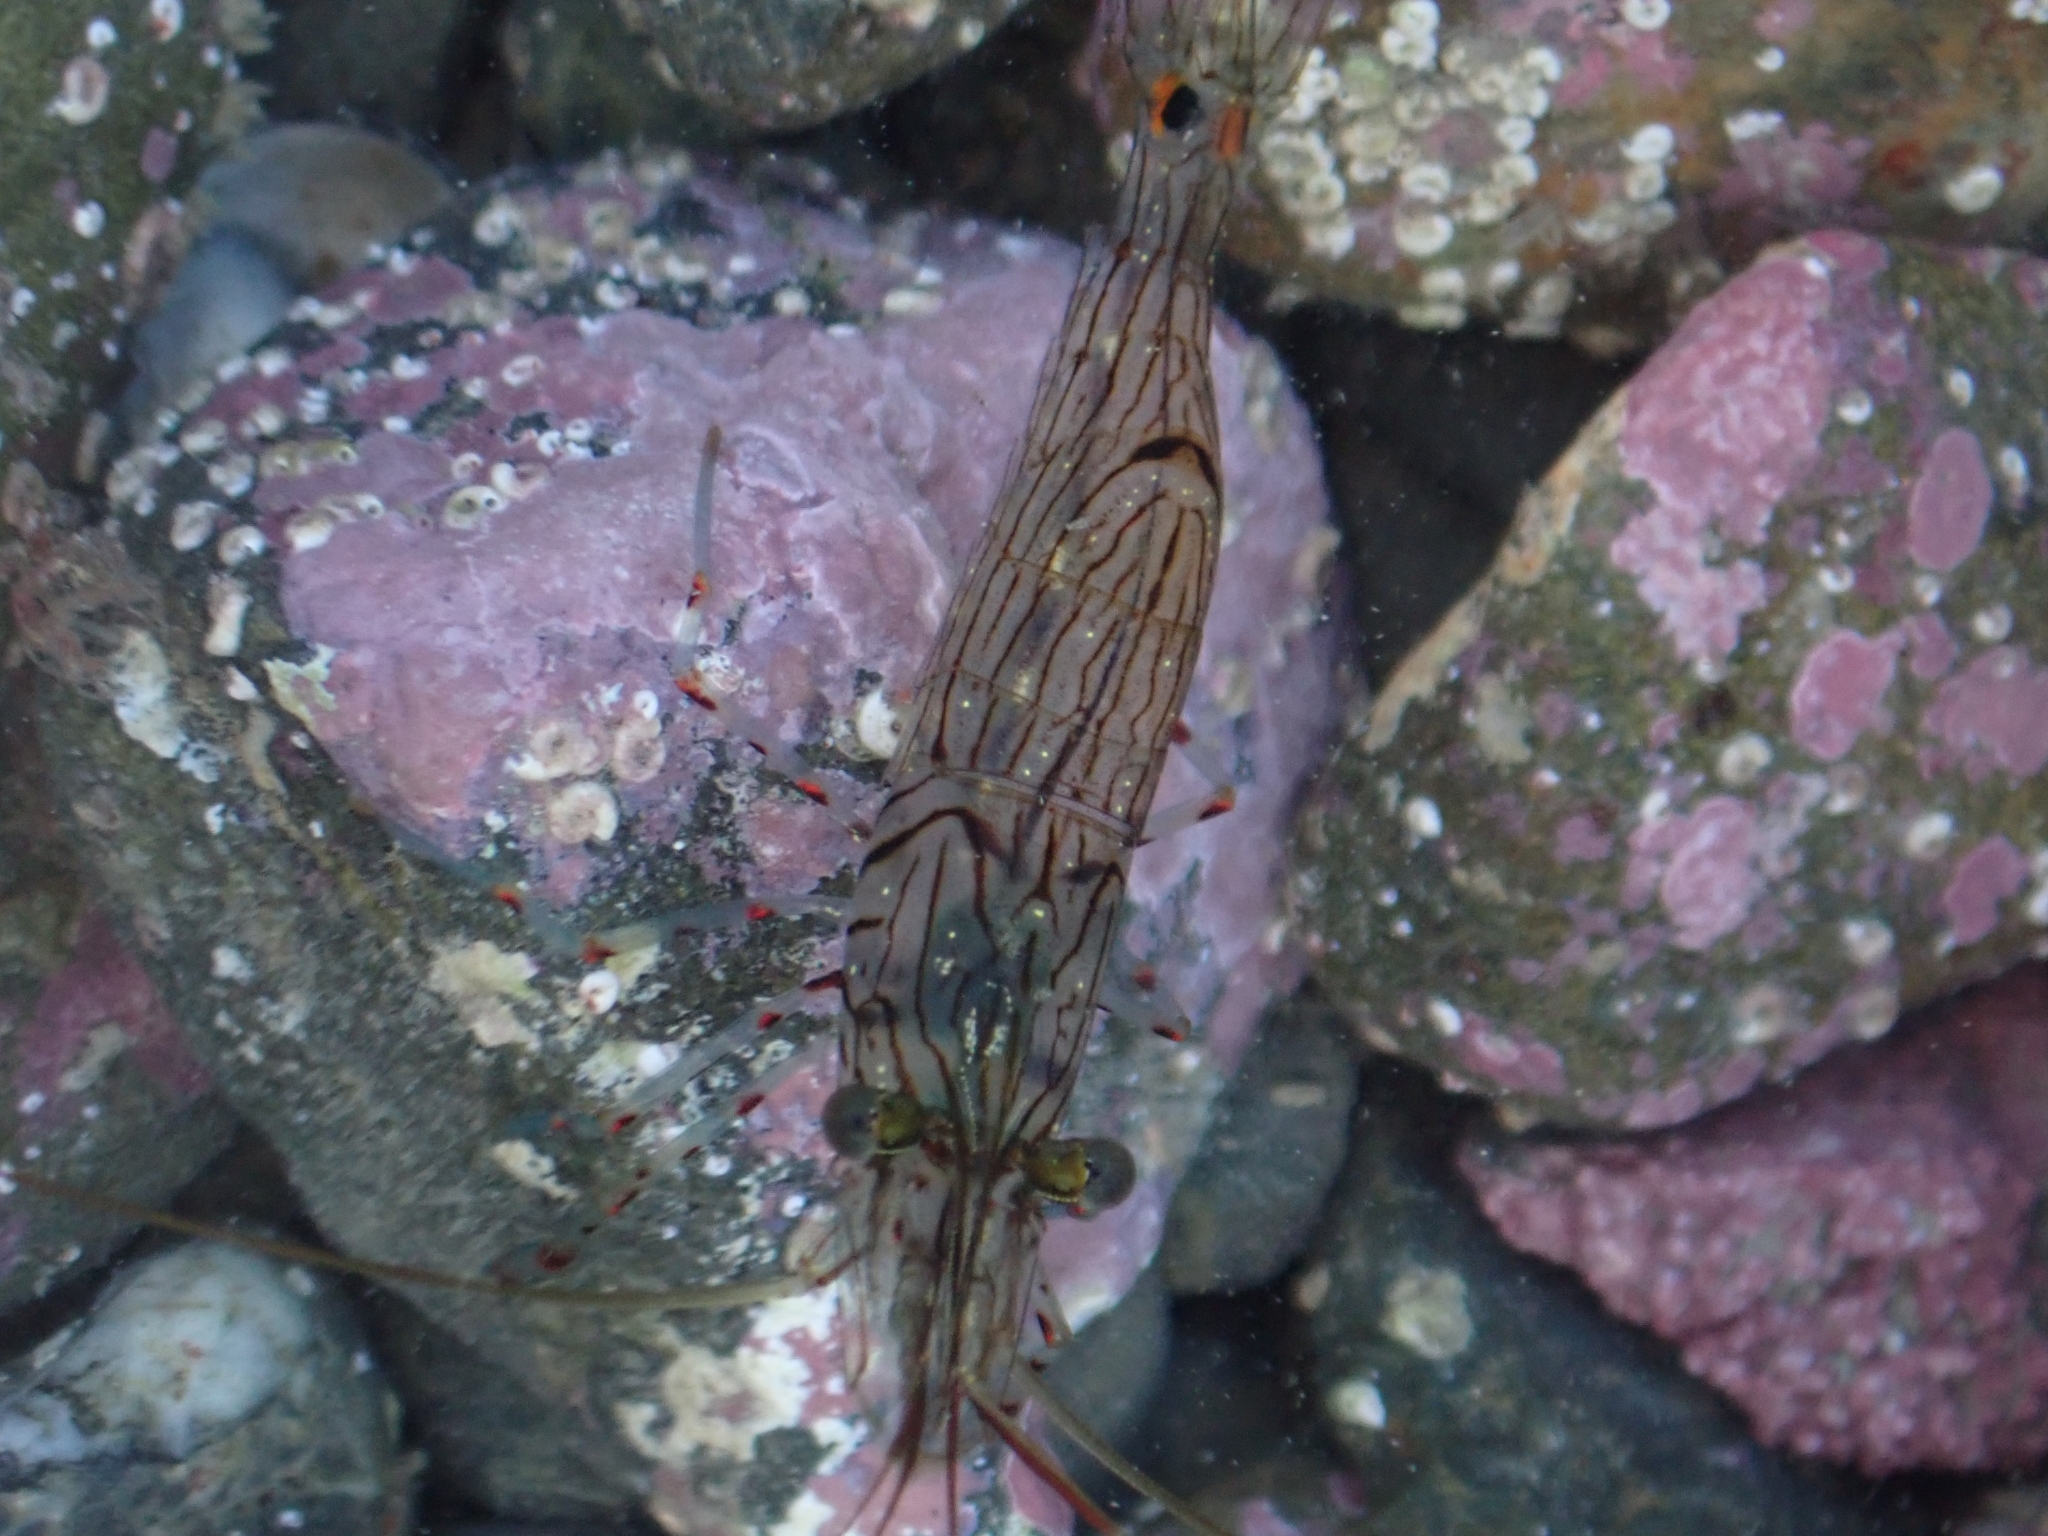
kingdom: Animalia
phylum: Arthropoda
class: Malacostraca
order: Decapoda
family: Palaemonidae
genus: Palaemon
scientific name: Palaemon affinis
